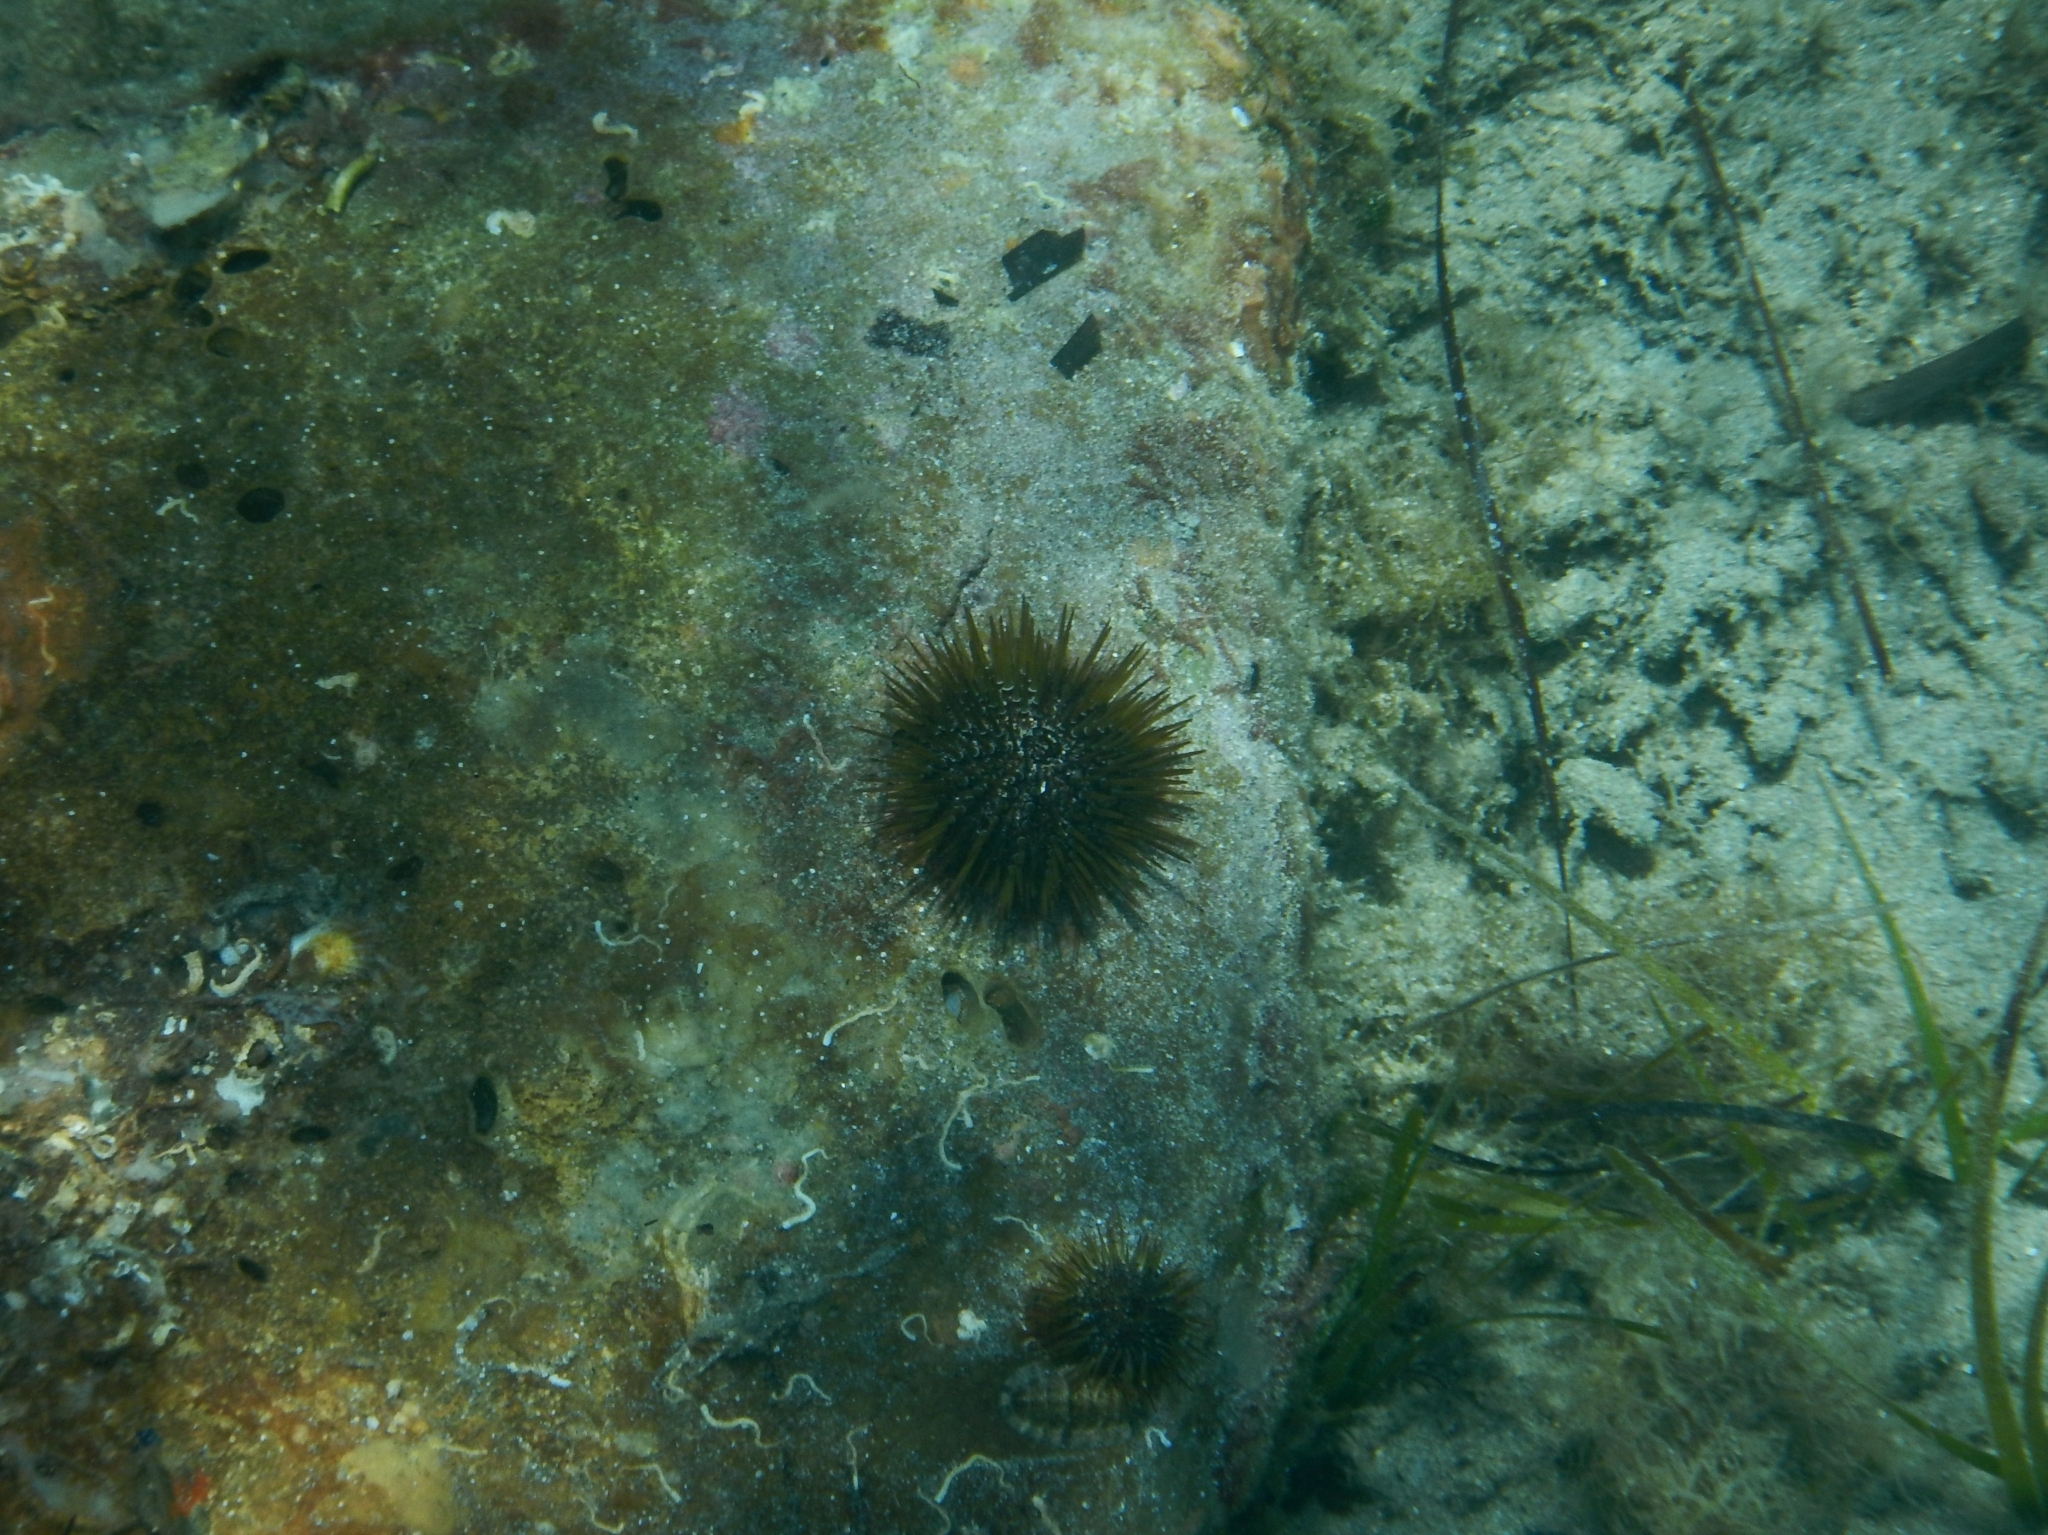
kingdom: Animalia
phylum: Echinodermata
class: Echinoidea
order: Camarodonta
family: Parechinidae
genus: Paracentrotus
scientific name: Paracentrotus lividus
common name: Purple sea urchin
